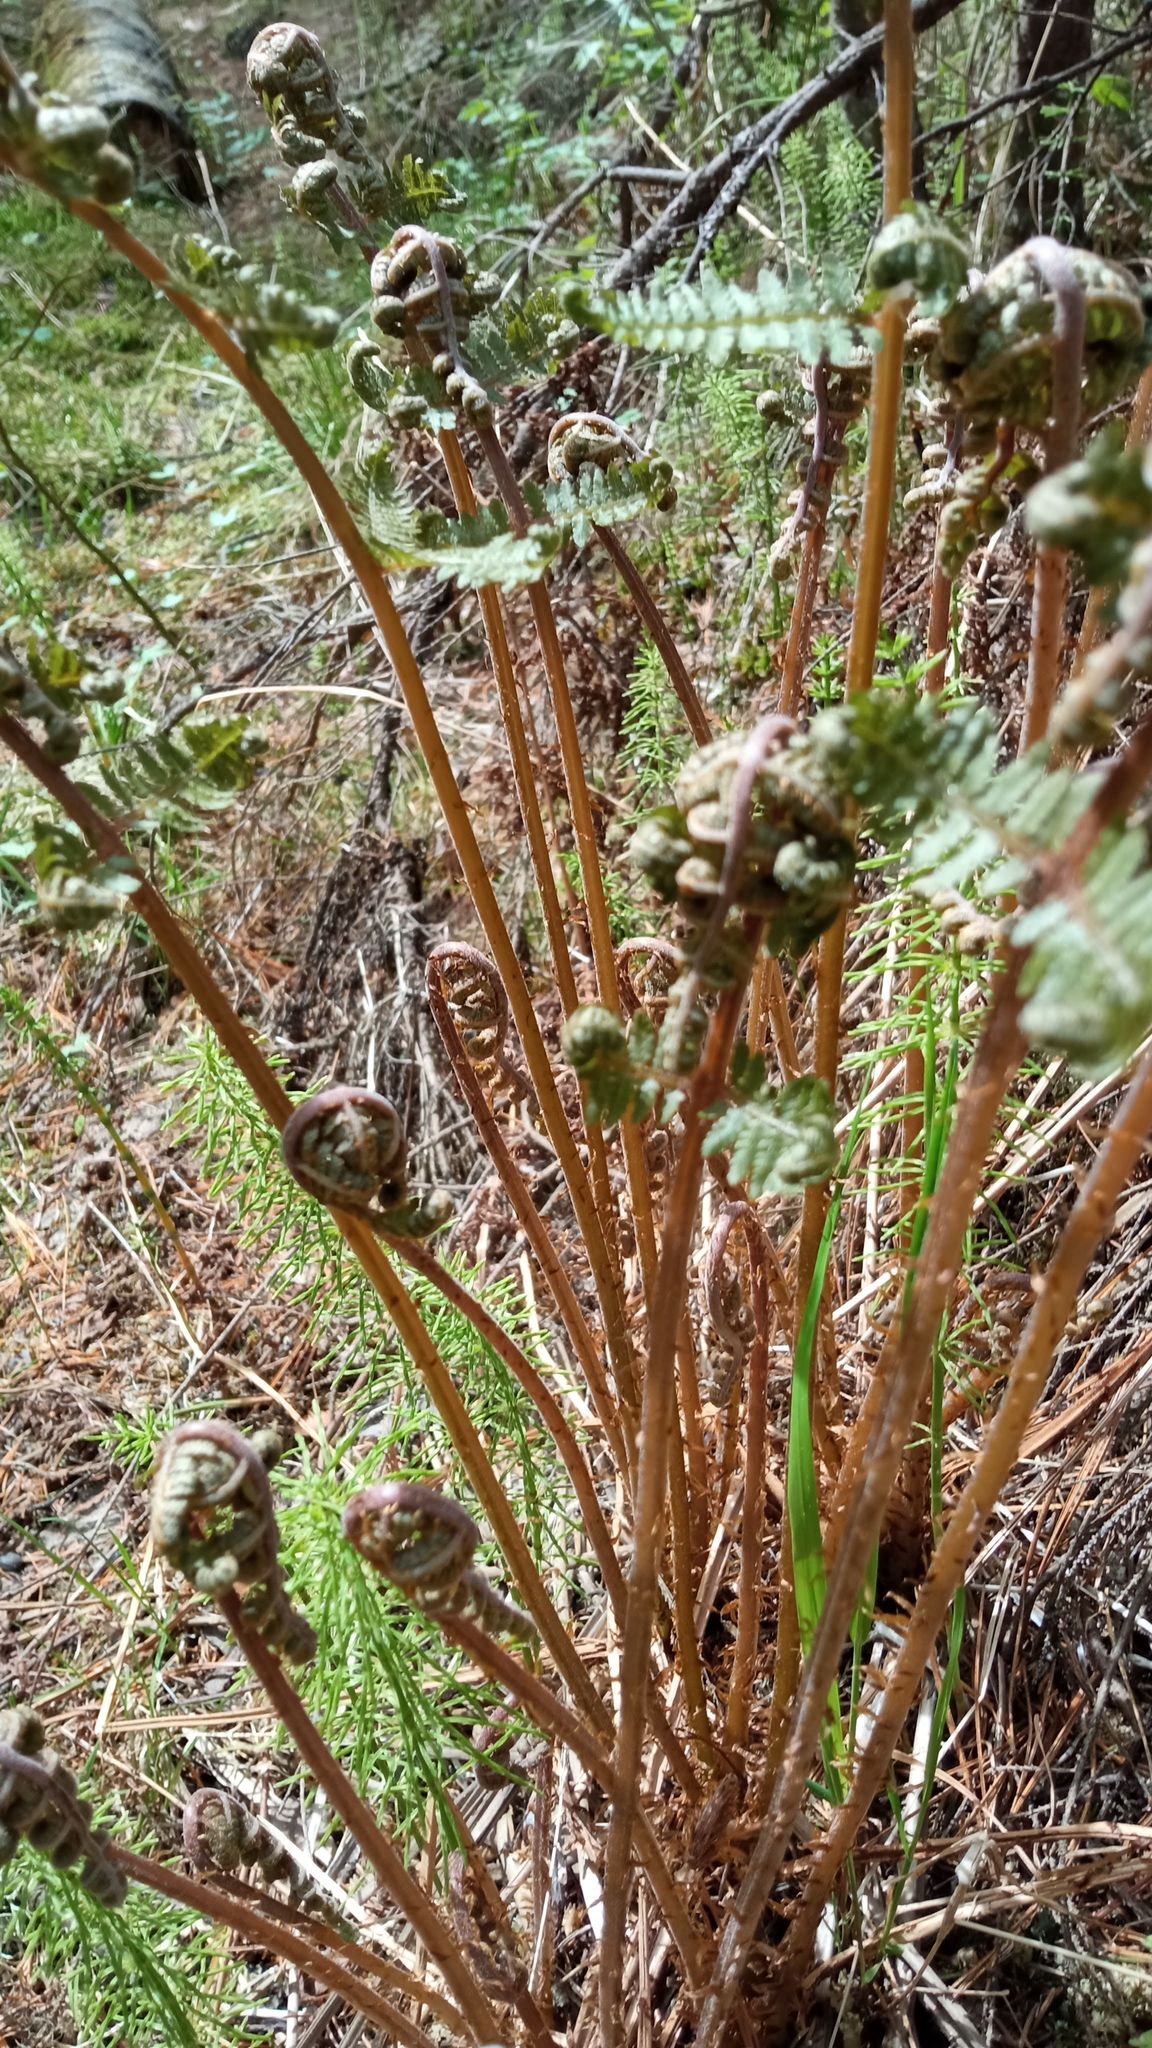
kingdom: Plantae
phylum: Tracheophyta
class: Polypodiopsida
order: Polypodiales
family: Athyriaceae
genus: Athyrium
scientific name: Athyrium filix-femina
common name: Lady fern
